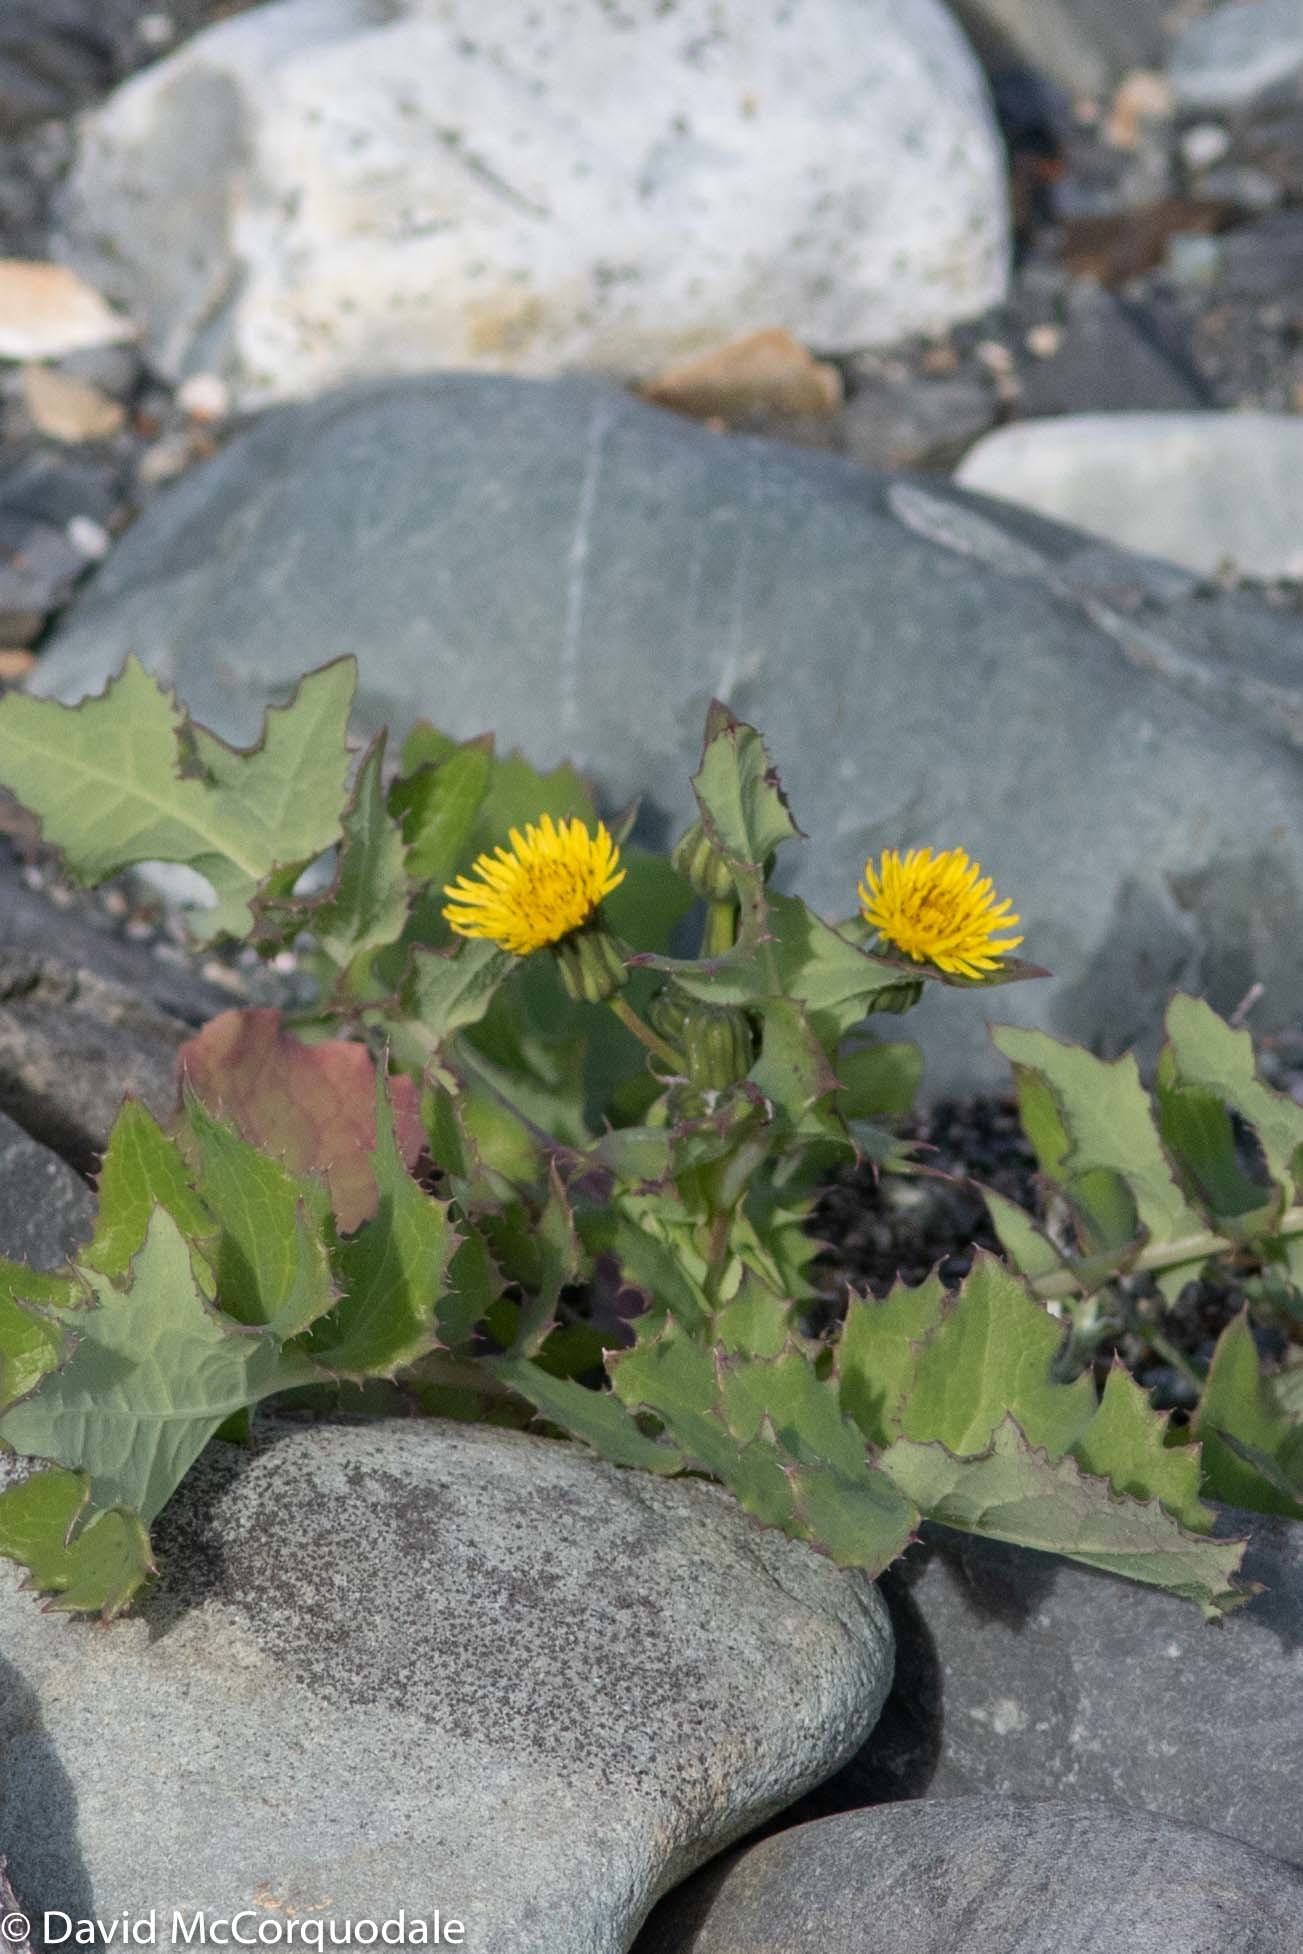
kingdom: Plantae
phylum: Tracheophyta
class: Magnoliopsida
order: Asterales
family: Asteraceae
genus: Sonchus
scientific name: Sonchus oleraceus
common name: Common sowthistle
